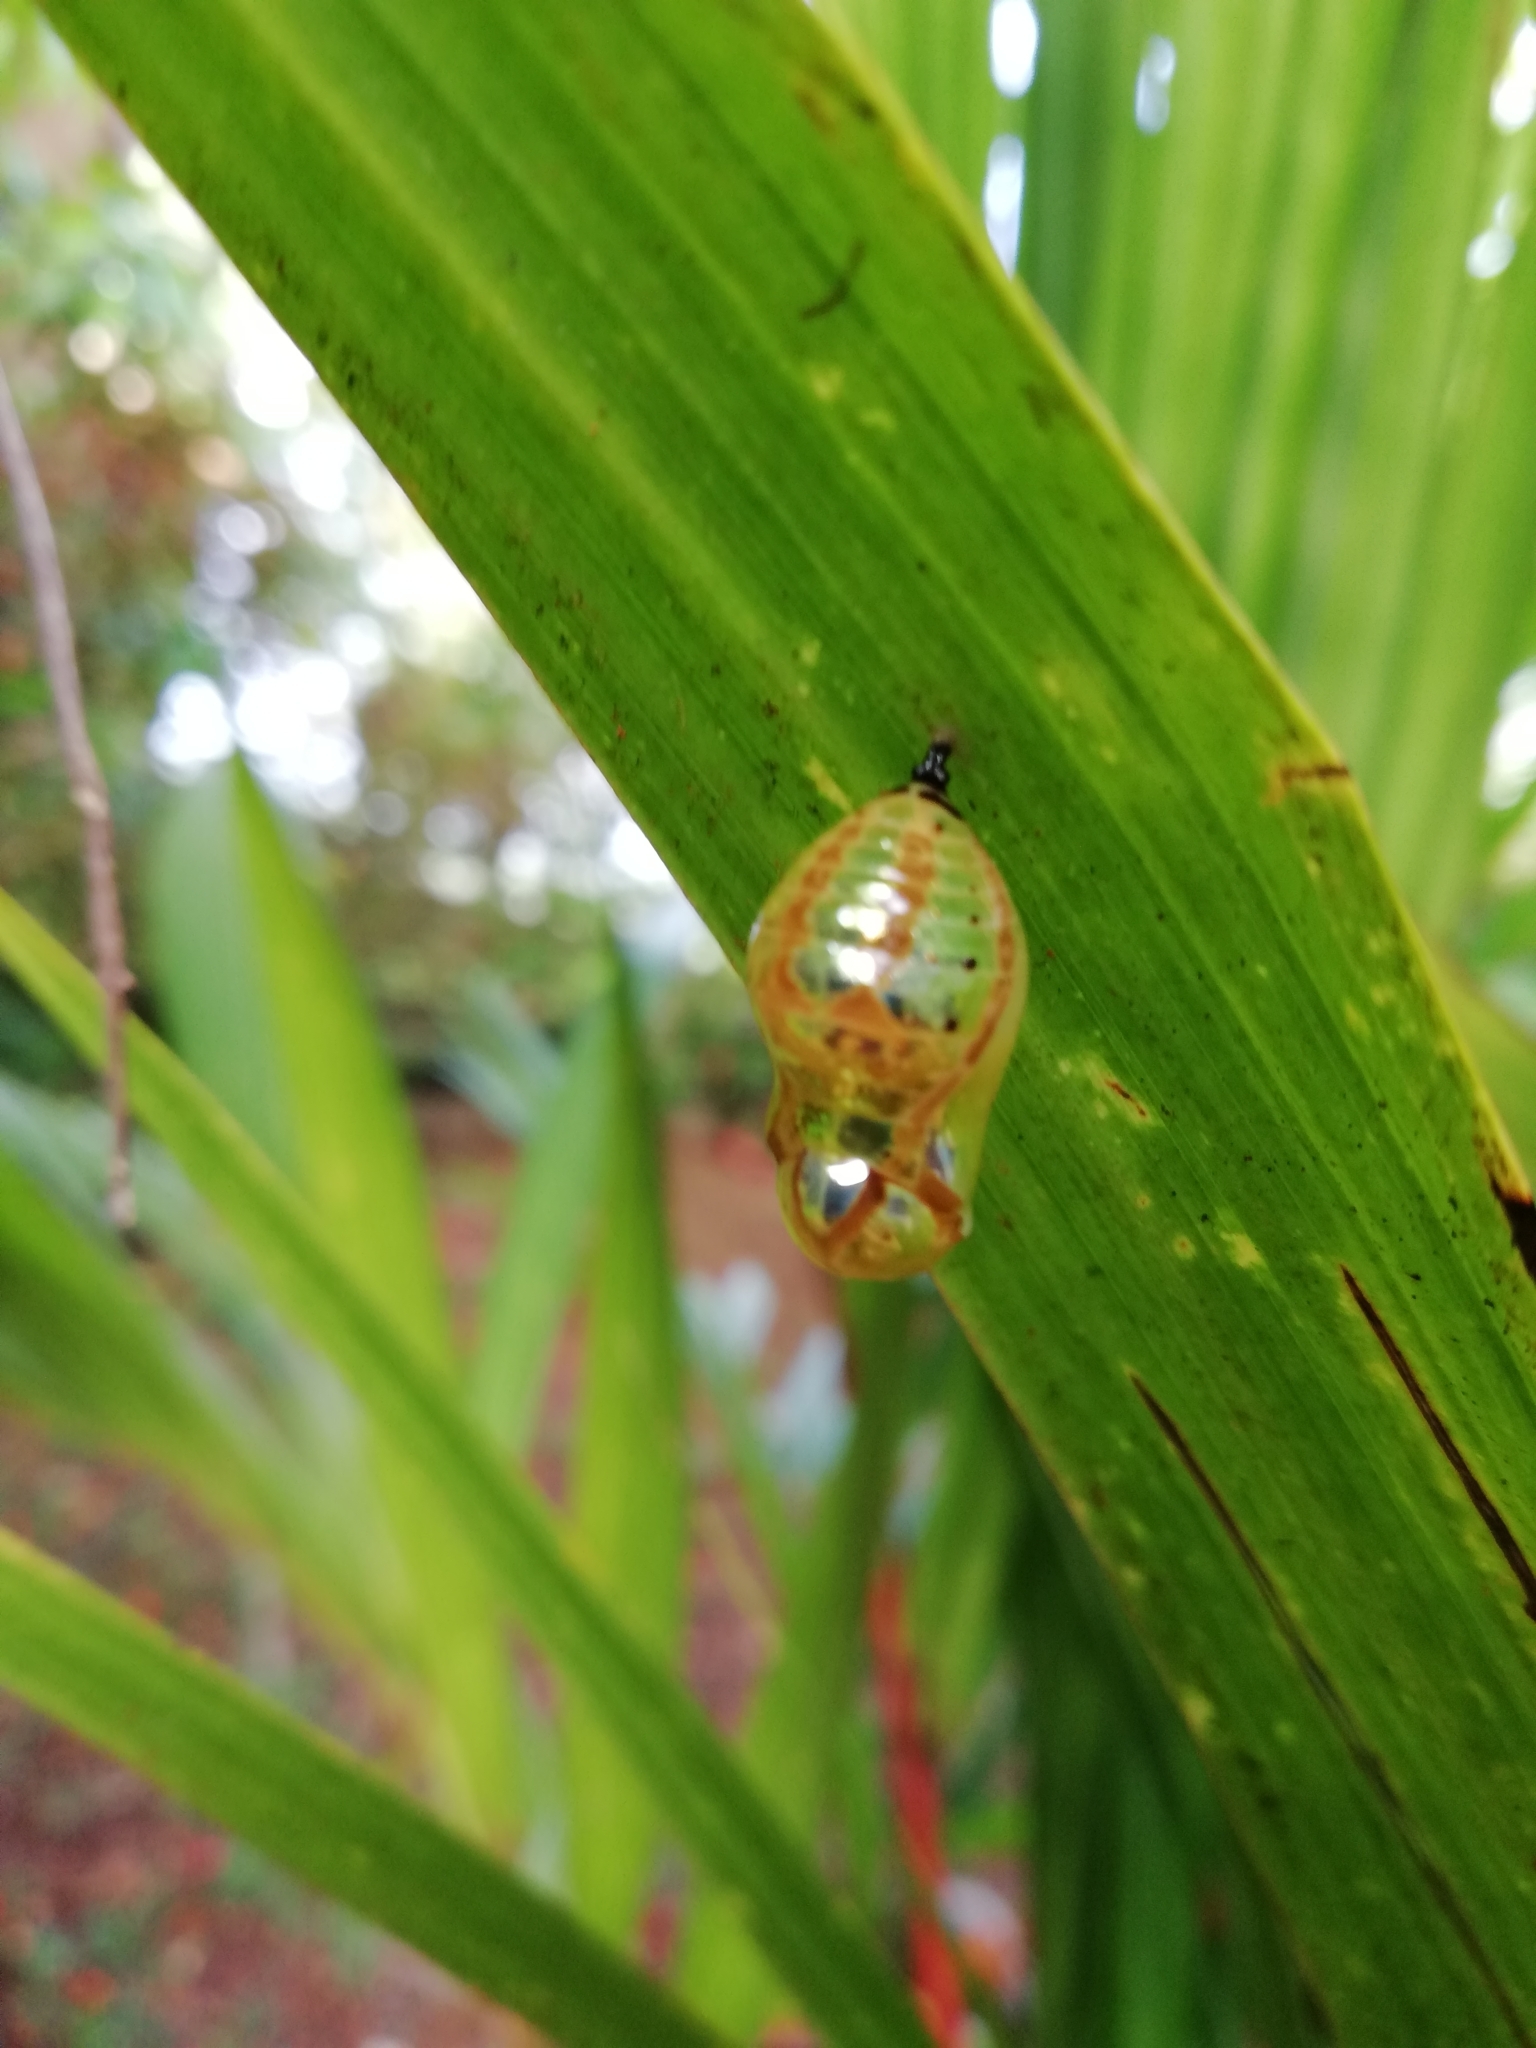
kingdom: Animalia
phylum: Arthropoda
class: Insecta
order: Lepidoptera
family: Nymphalidae
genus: Euploea
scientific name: Euploea core
